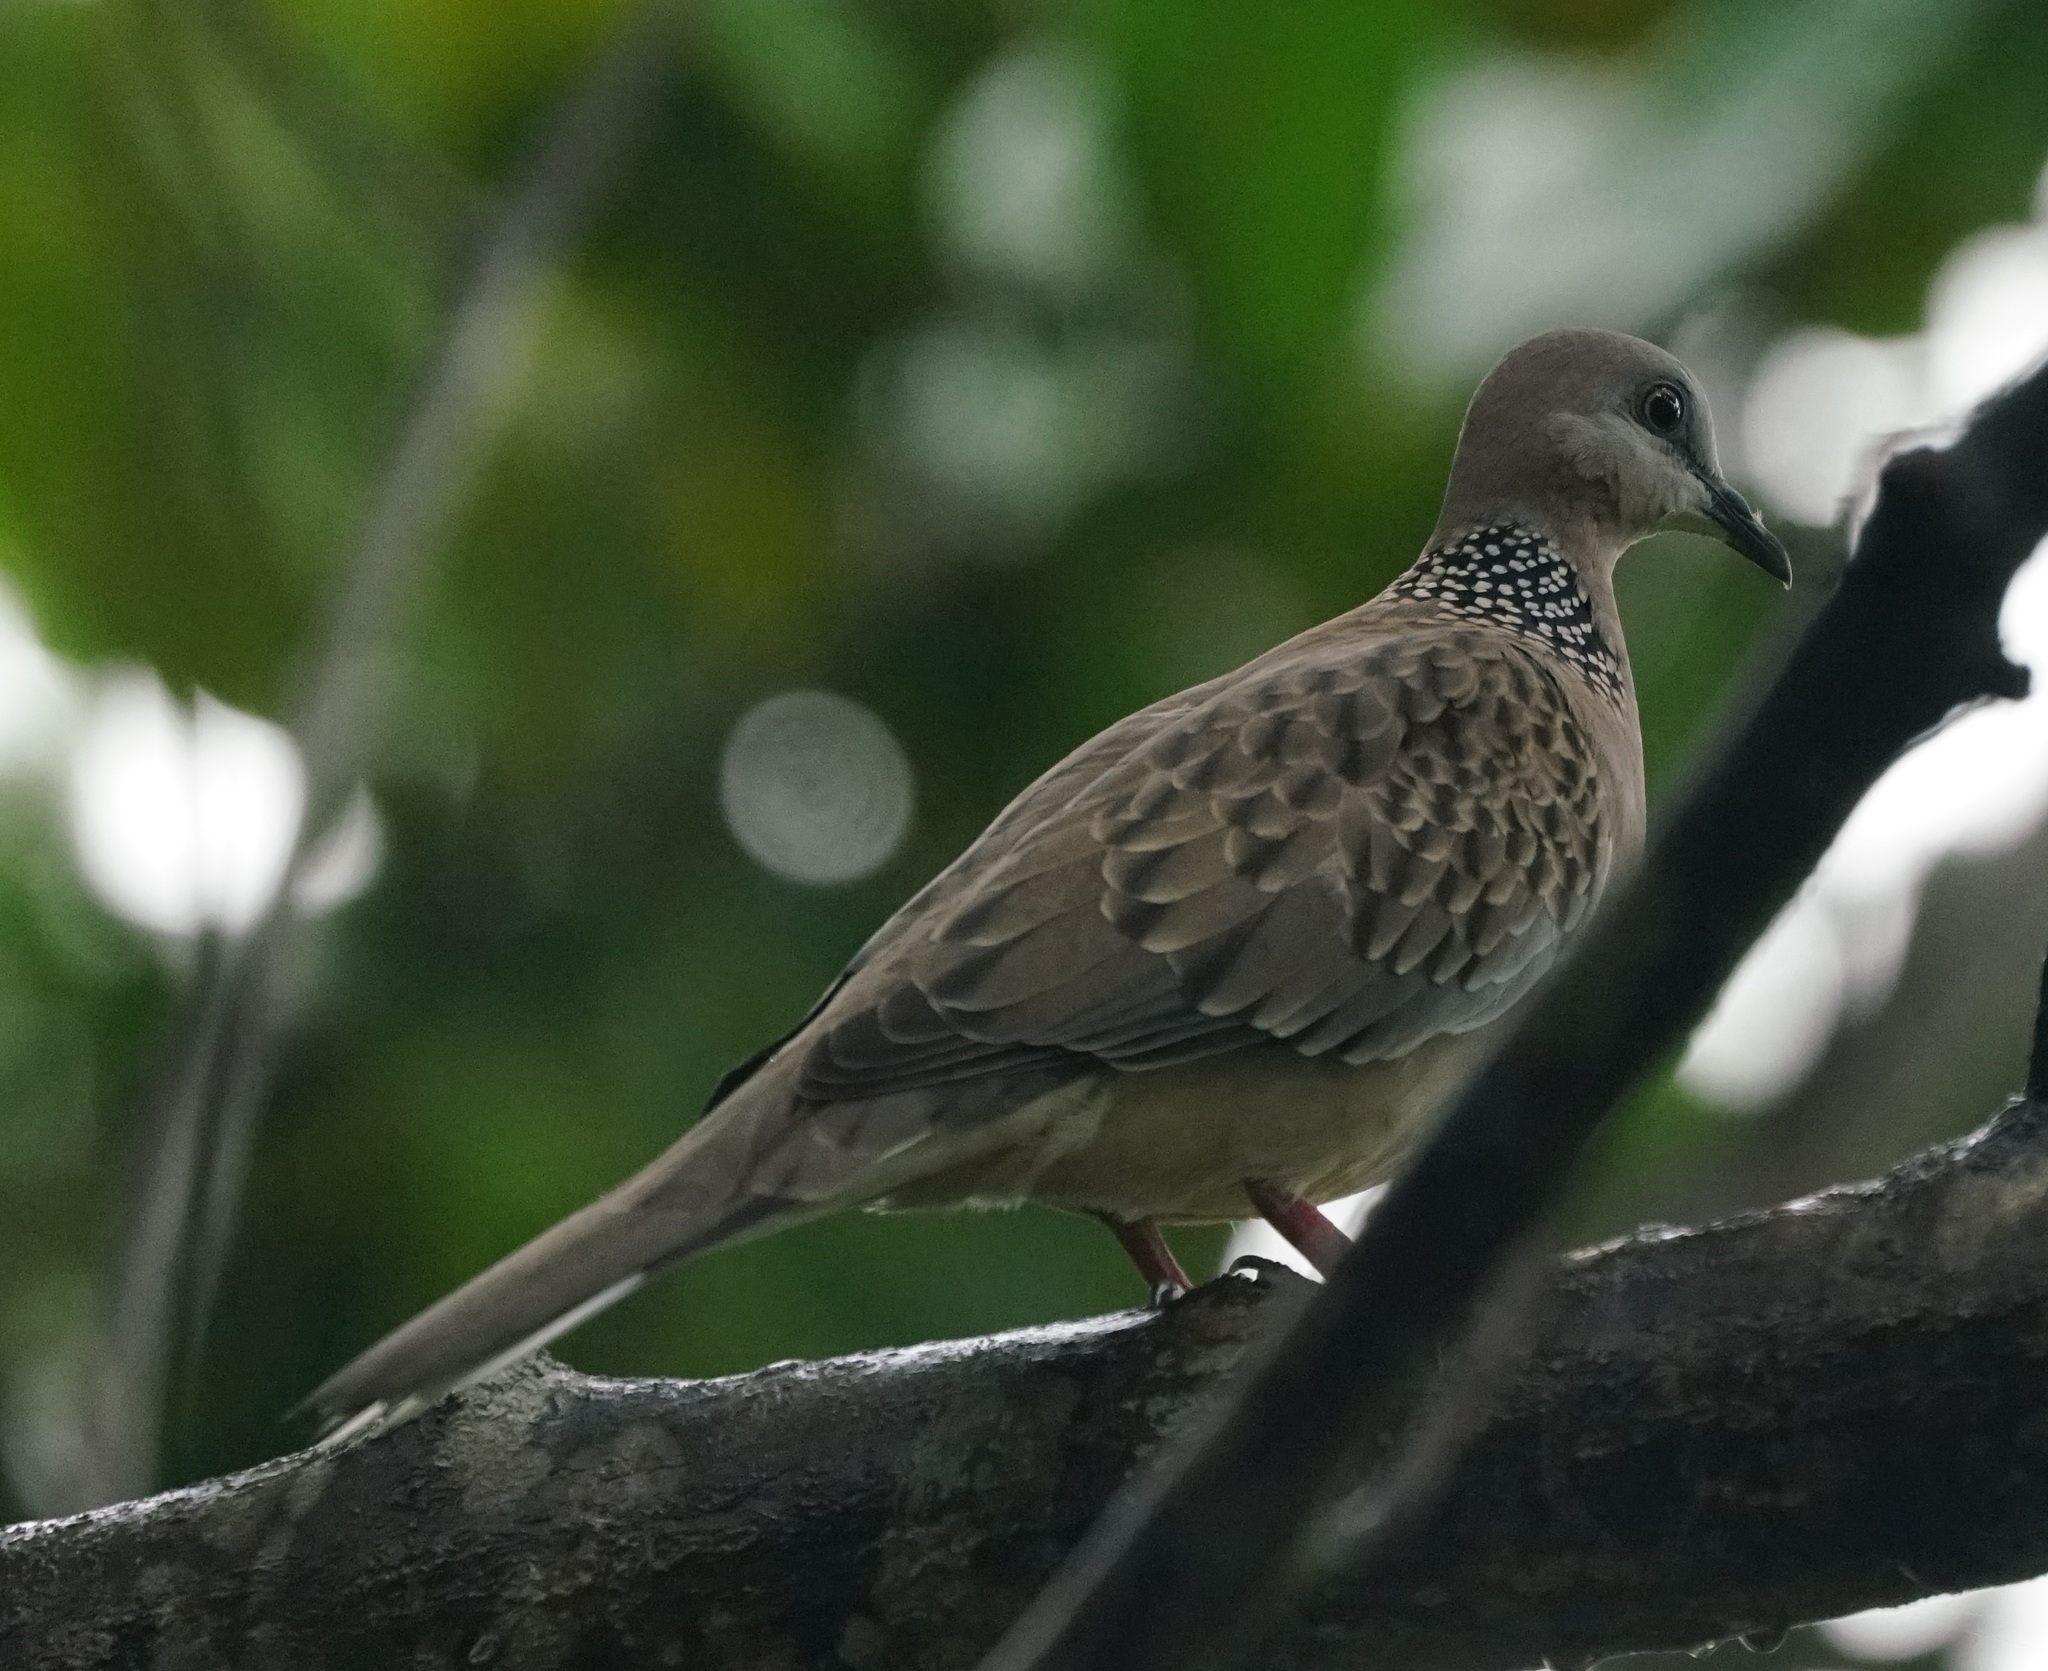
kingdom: Animalia
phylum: Chordata
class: Aves
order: Columbiformes
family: Columbidae
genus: Spilopelia
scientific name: Spilopelia chinensis
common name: Spotted dove
